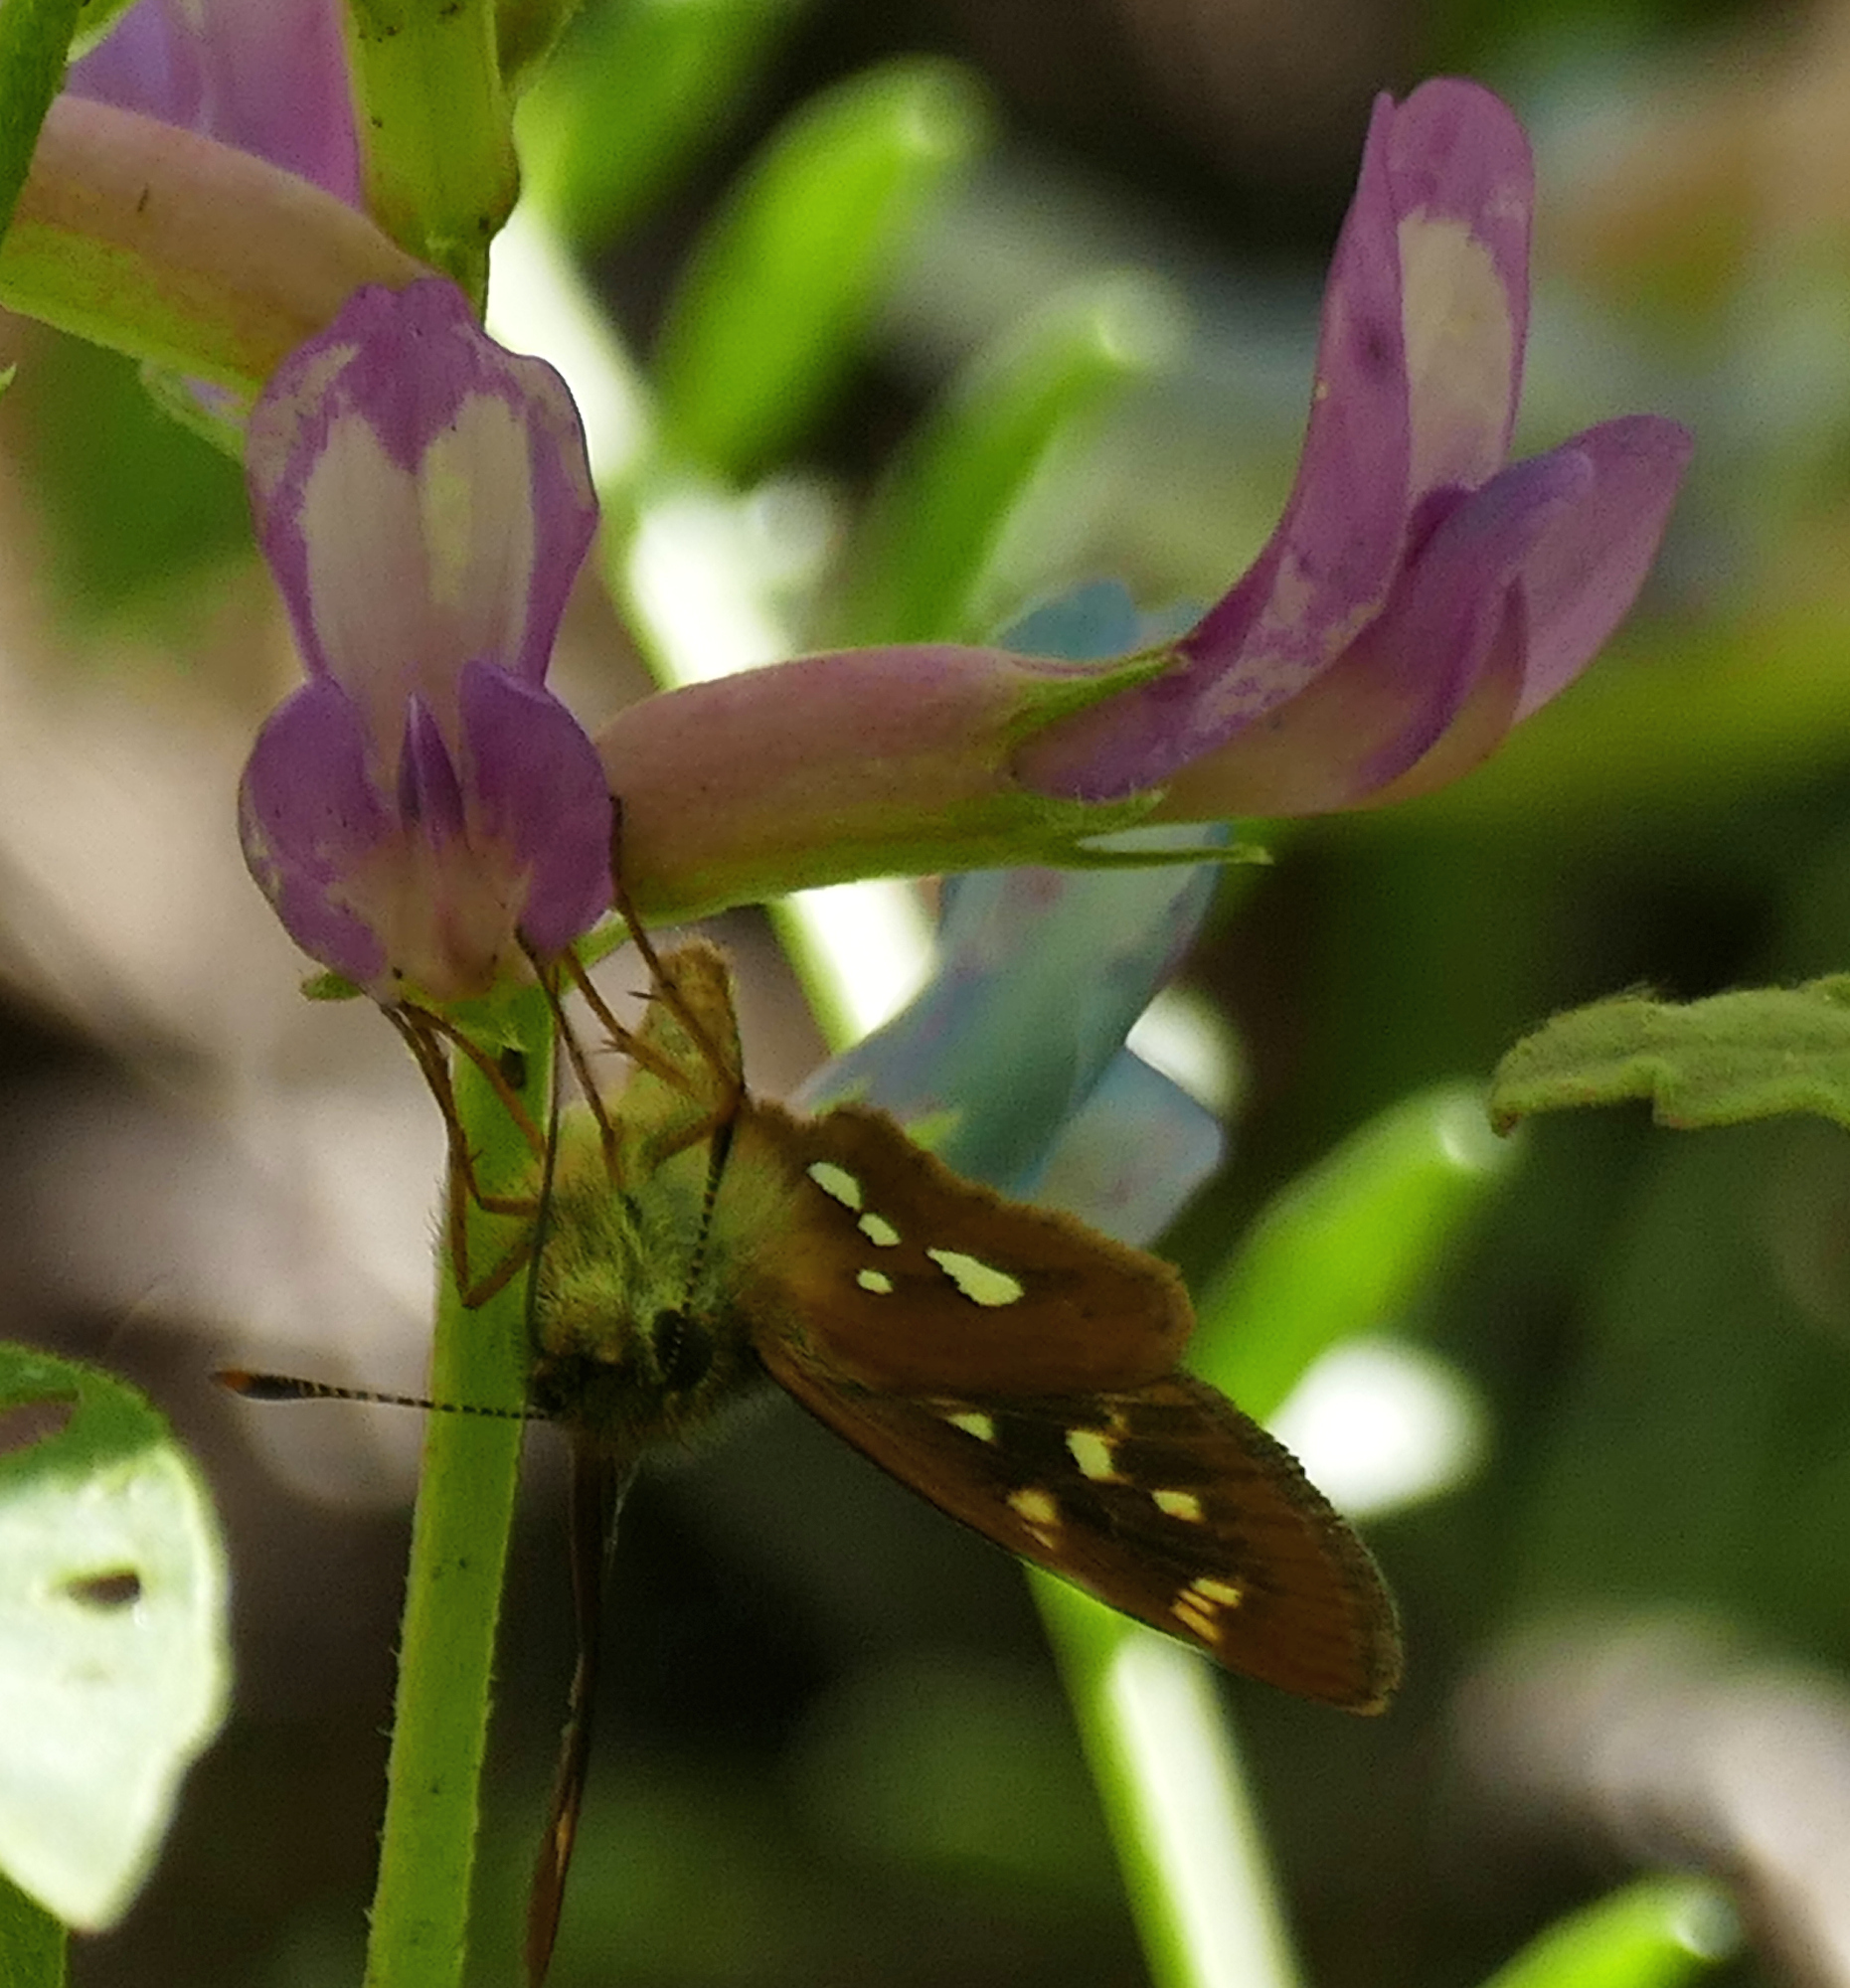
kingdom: Animalia
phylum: Arthropoda
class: Insecta
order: Lepidoptera
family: Hesperiidae
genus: Piruna
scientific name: Piruna polingii
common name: Four-spotted skipperling
